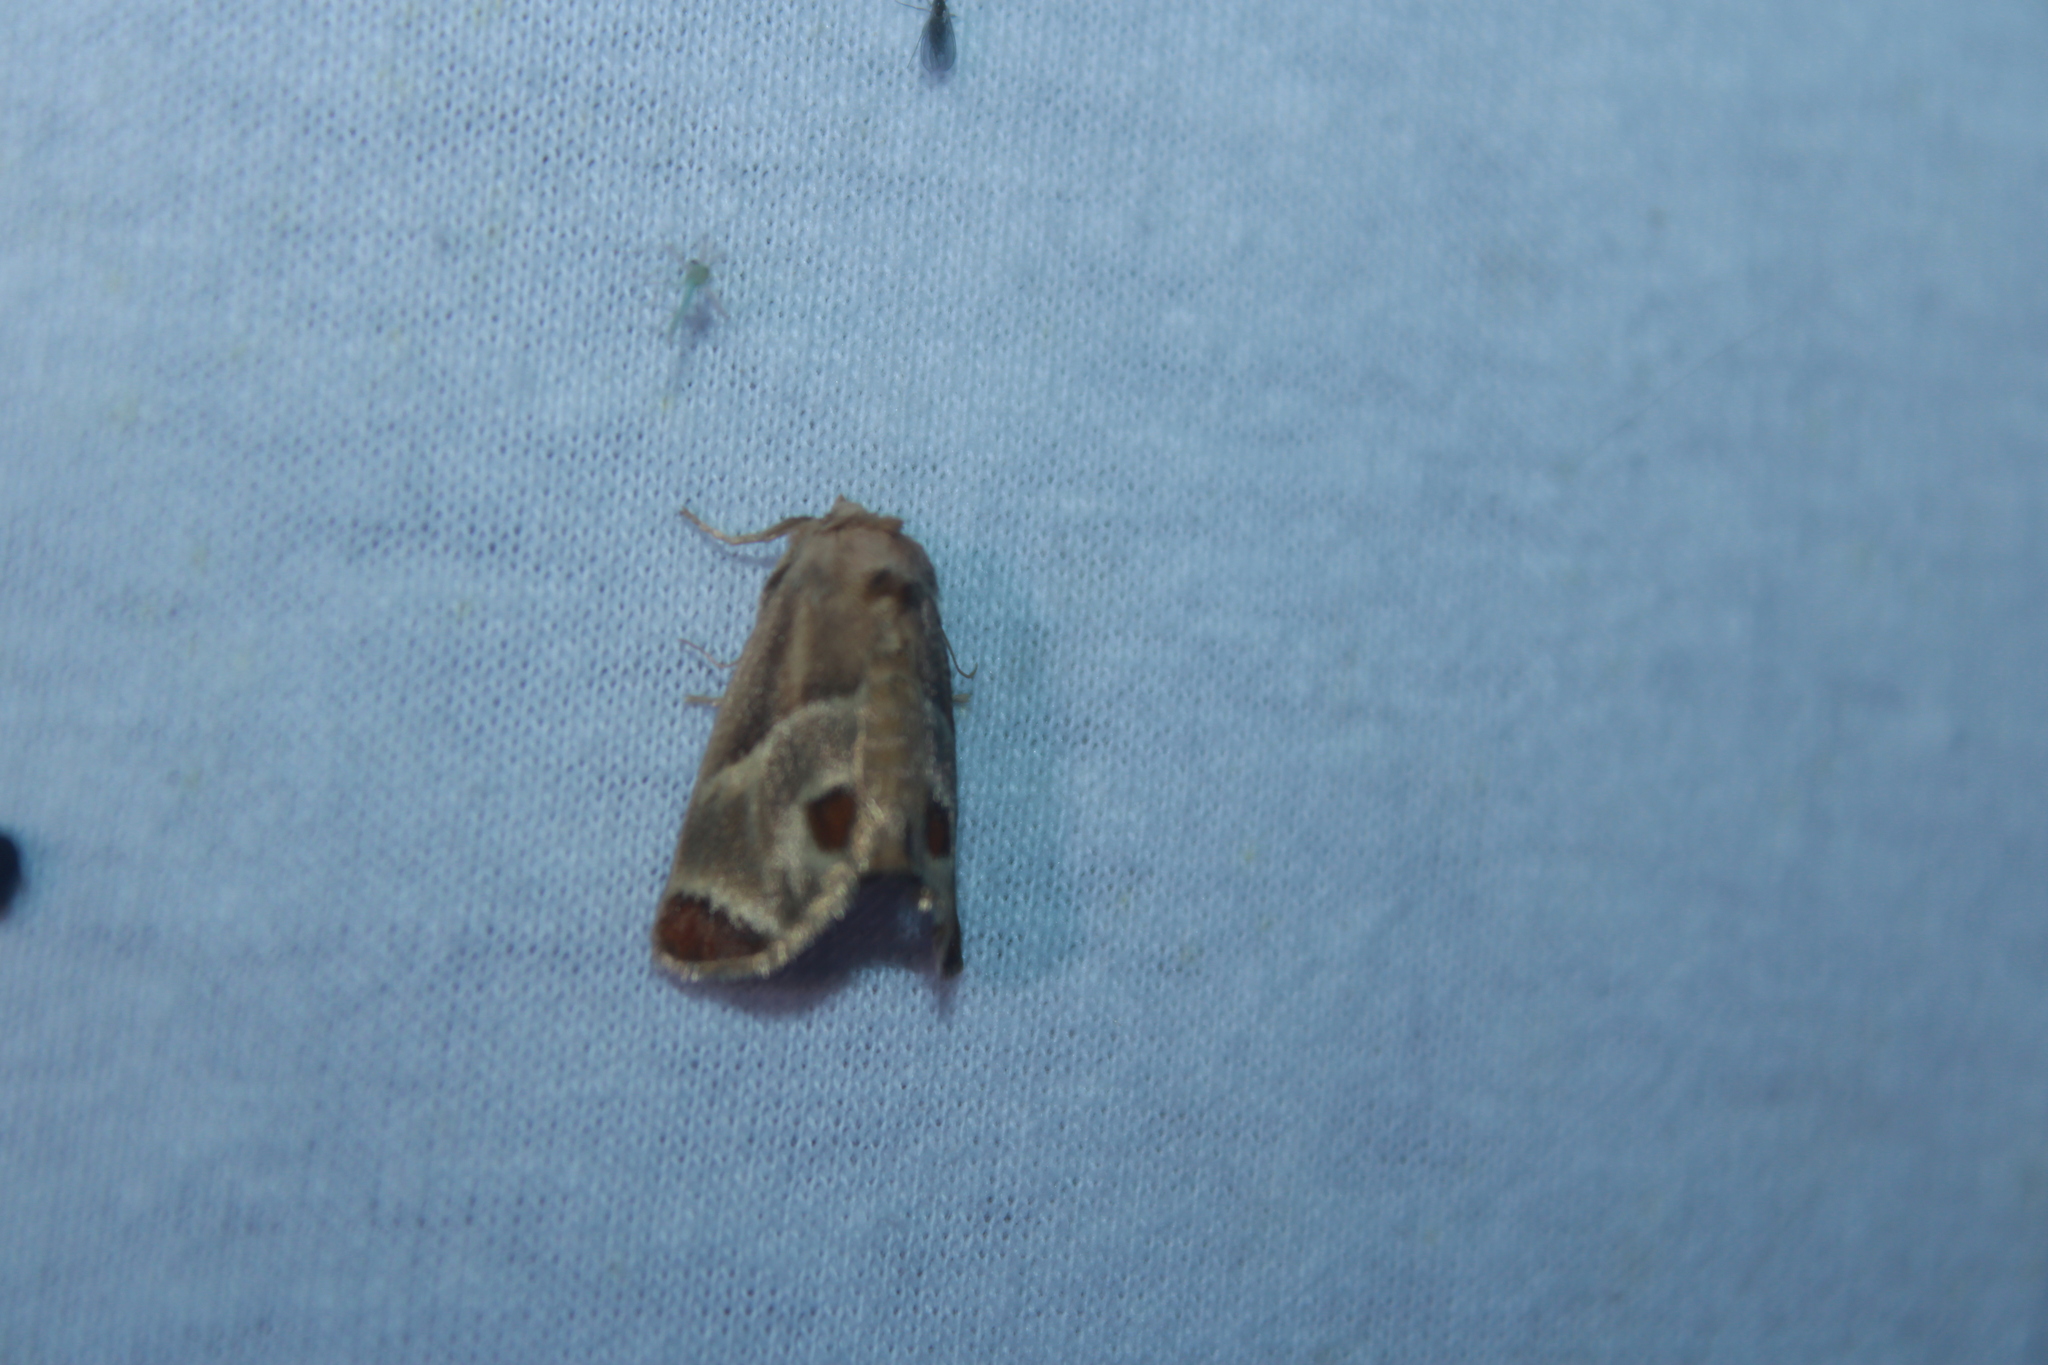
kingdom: Animalia
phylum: Arthropoda
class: Insecta
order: Lepidoptera
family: Limacodidae
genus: Apoda
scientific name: Apoda biguttata
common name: Shagreened slug moth
